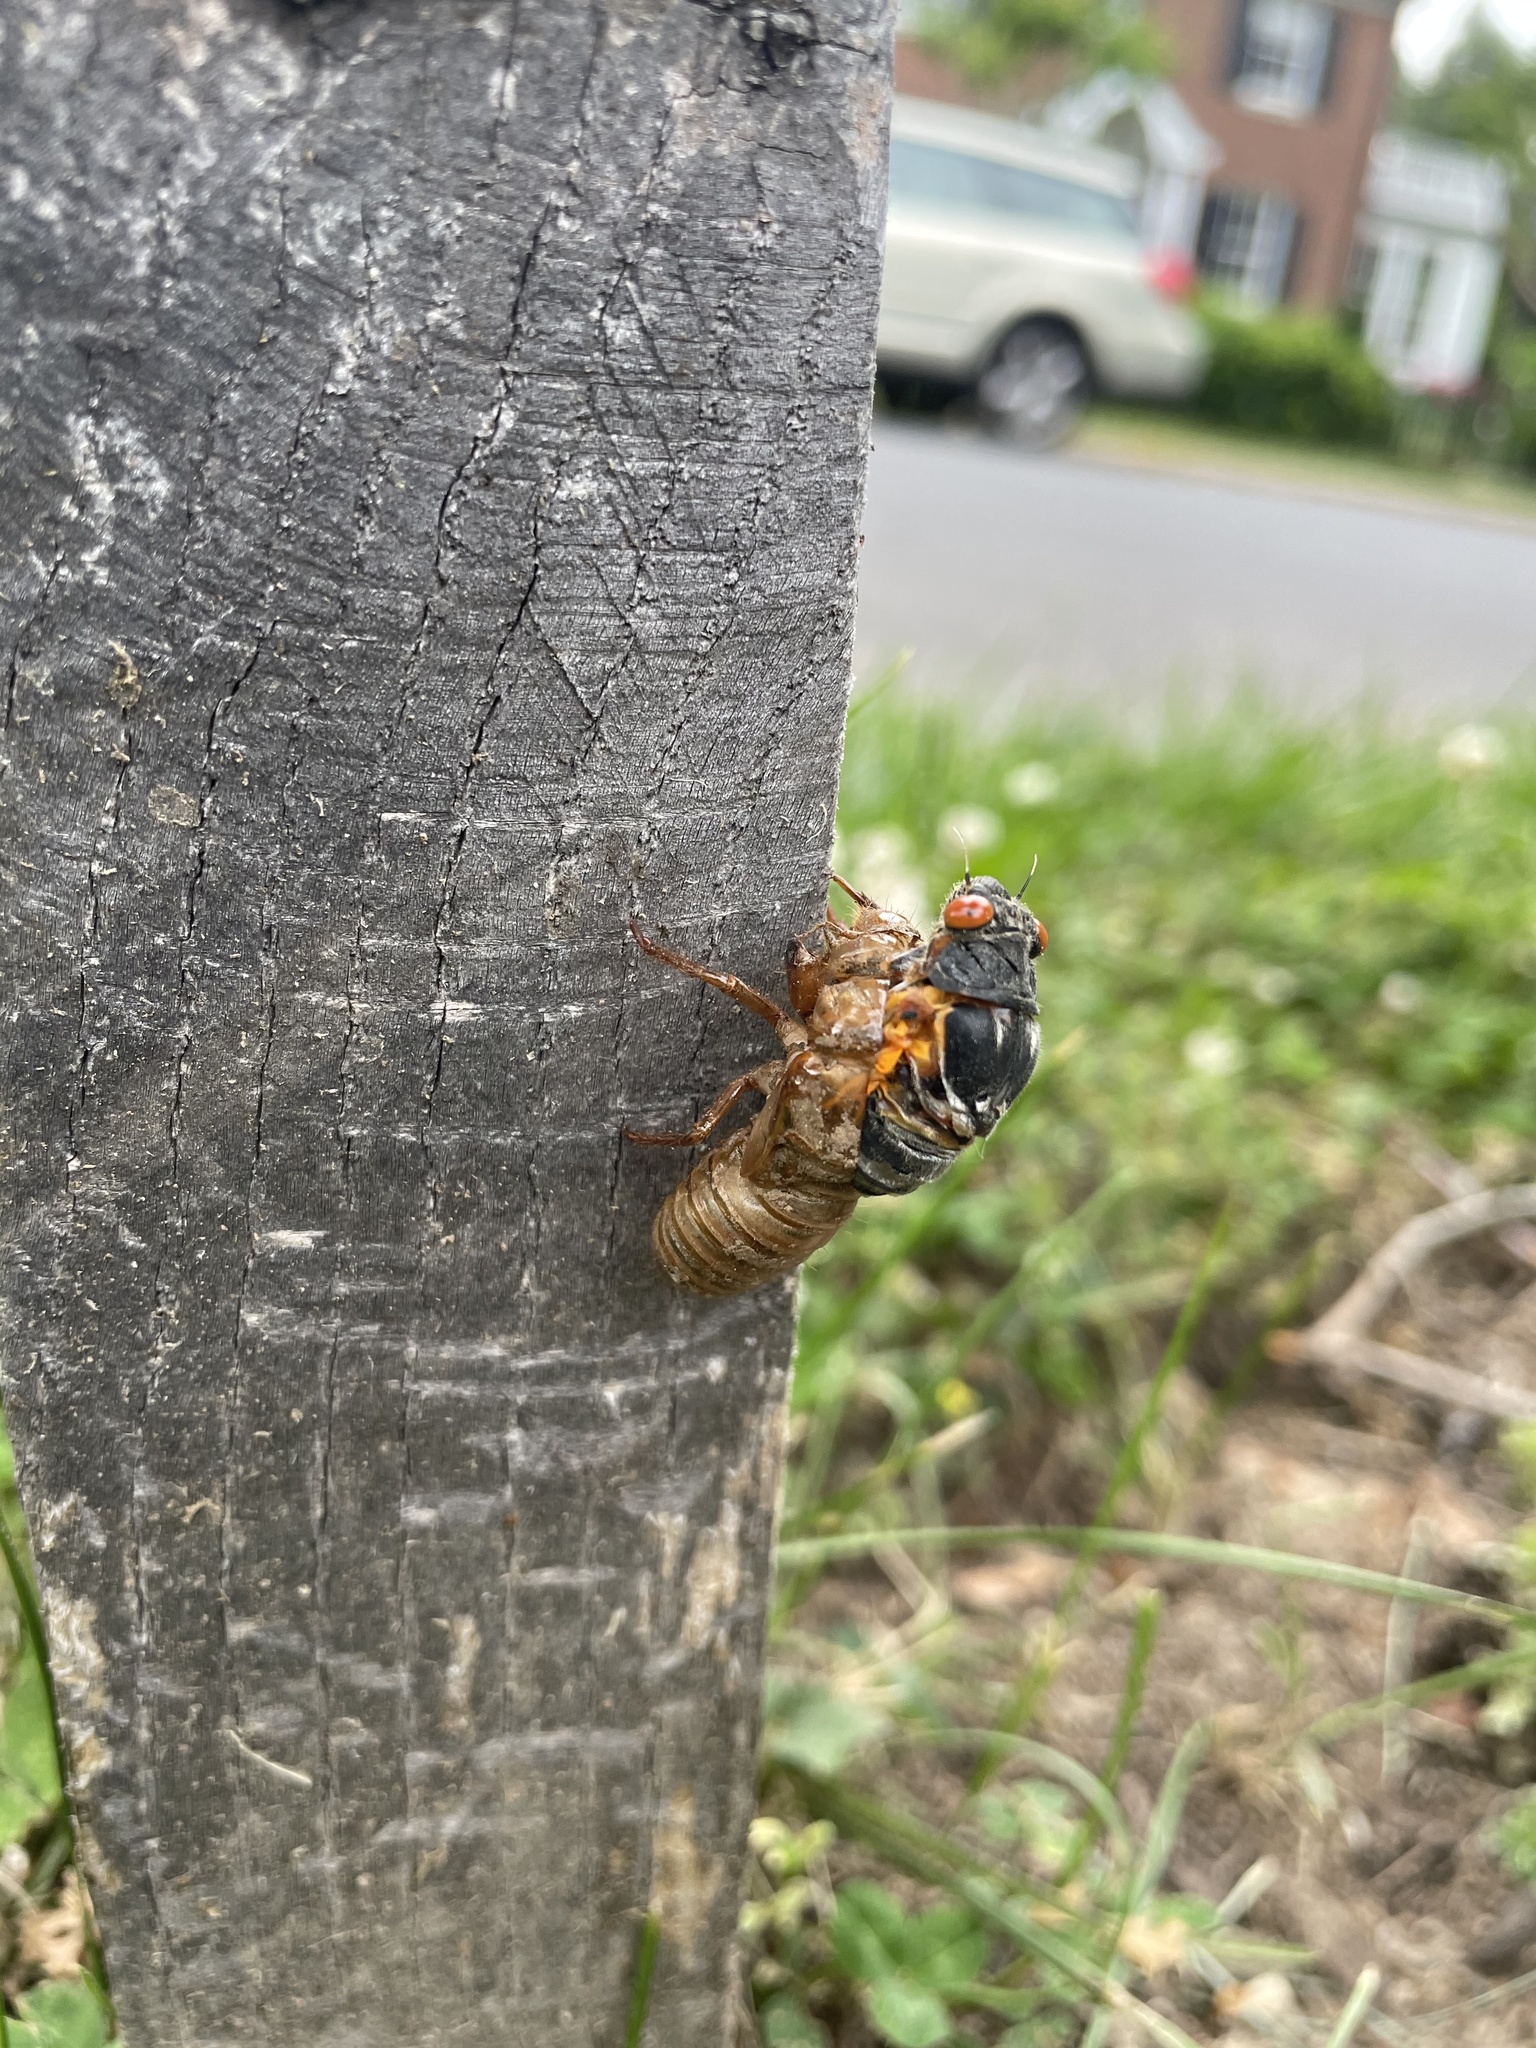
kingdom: Animalia
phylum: Arthropoda
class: Insecta
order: Hemiptera
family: Cicadidae
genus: Magicicada
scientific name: Magicicada septendecim
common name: Periodical cicada
